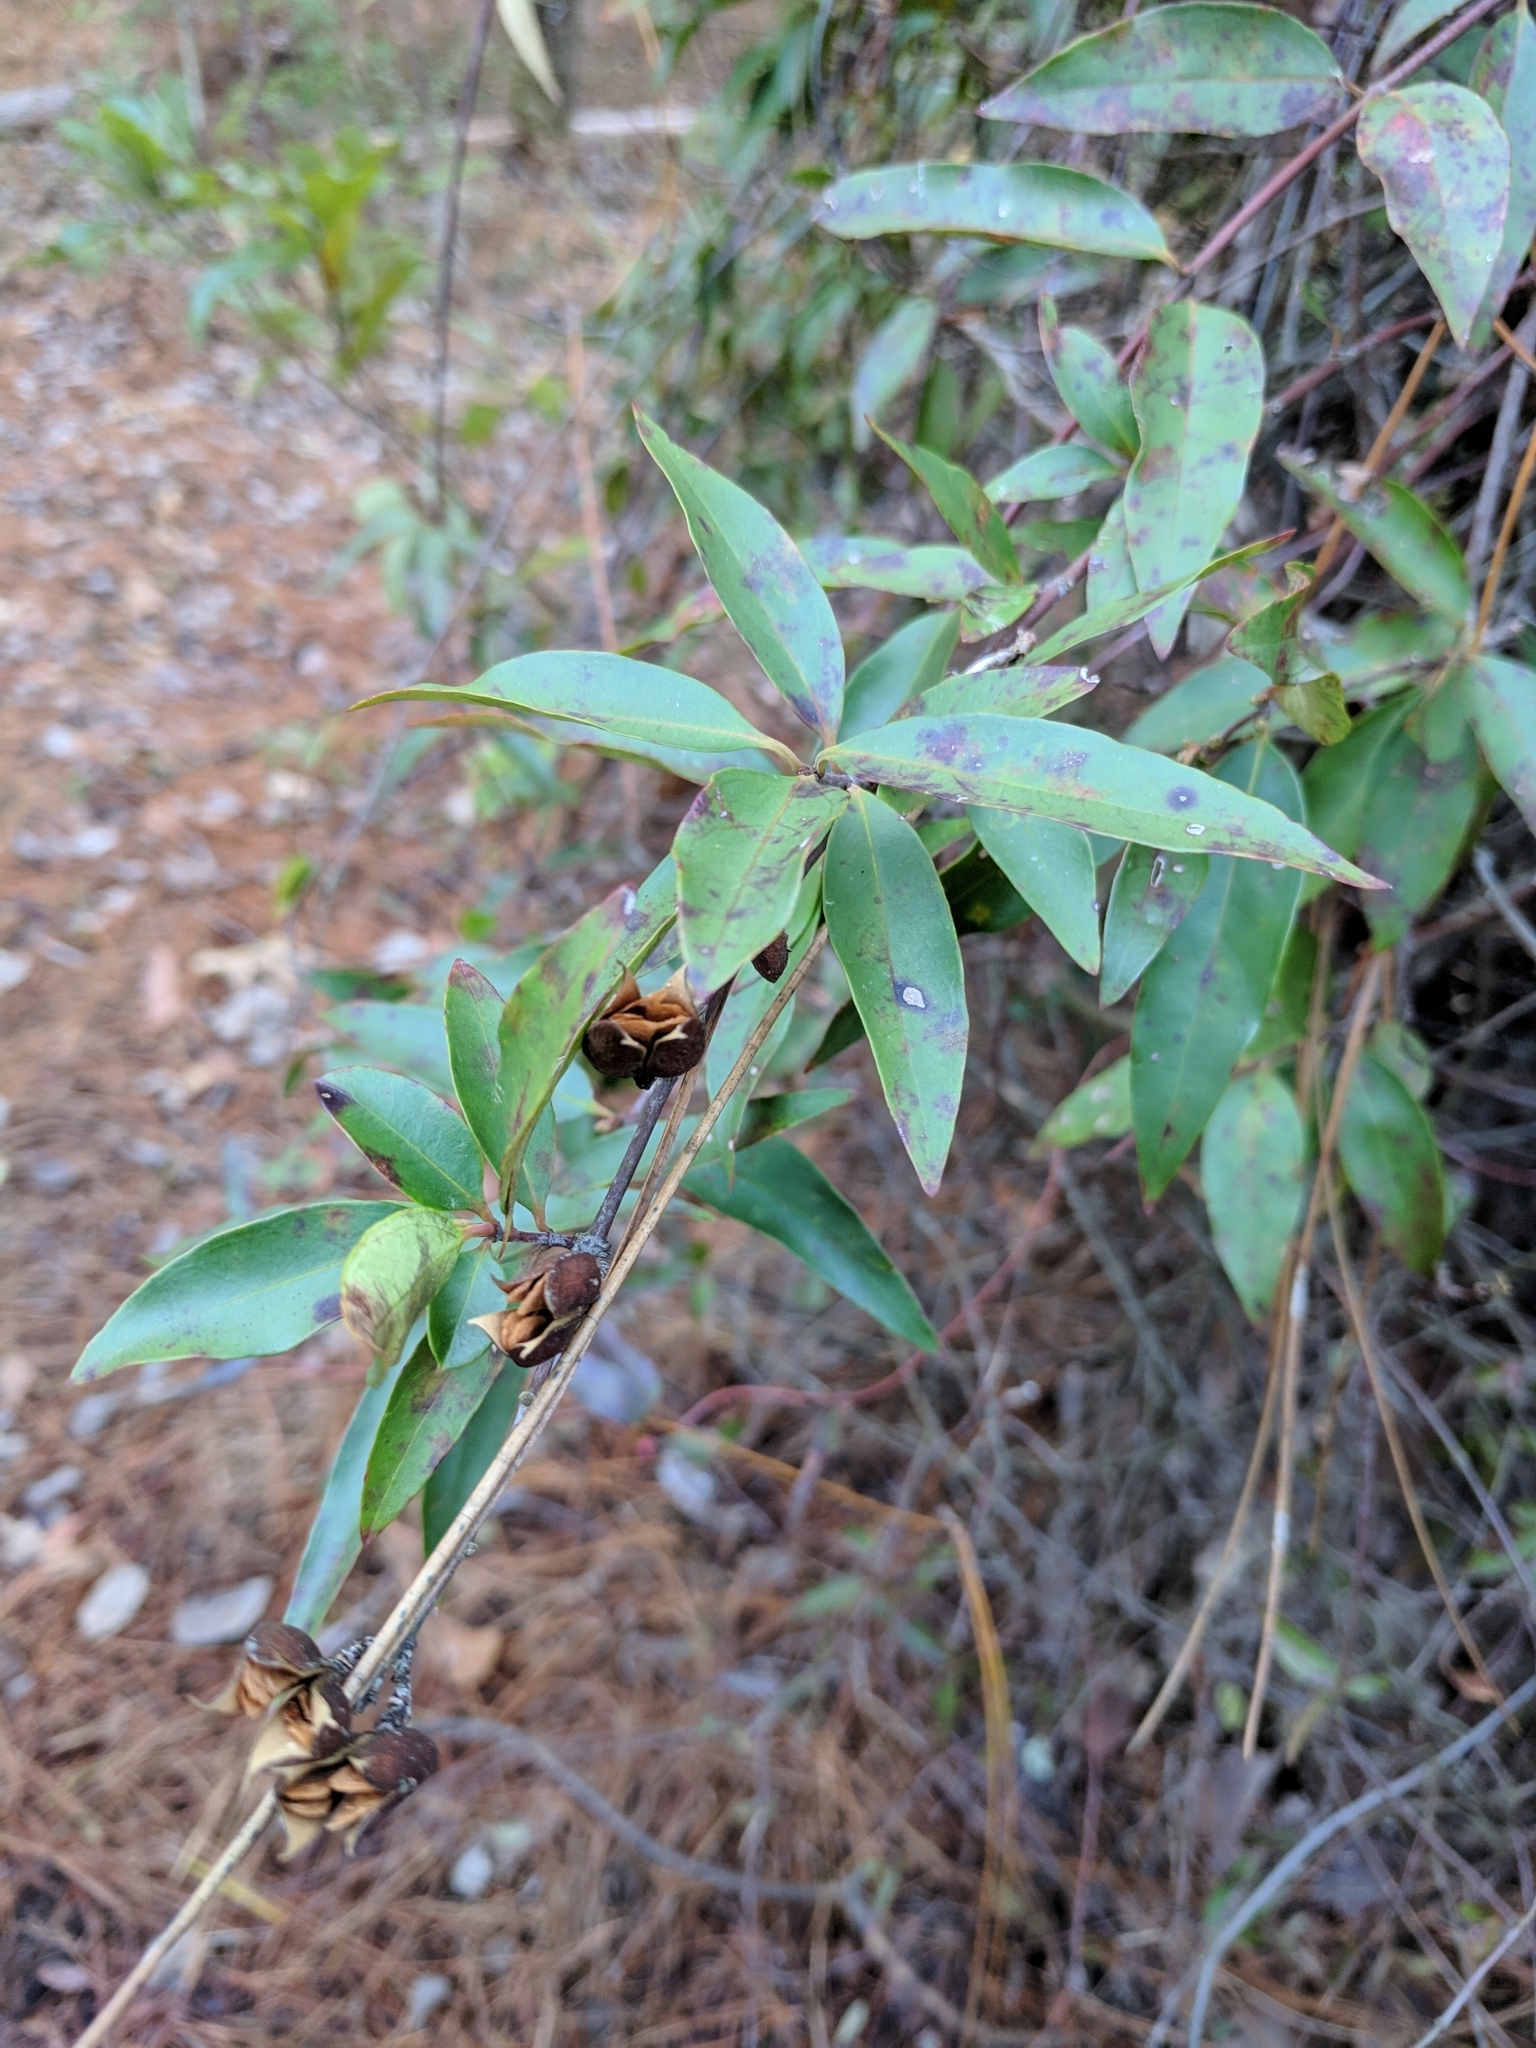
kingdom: Plantae
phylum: Tracheophyta
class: Magnoliopsida
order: Gentianales
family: Gelsemiaceae
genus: Gelsemium
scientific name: Gelsemium sempervirens
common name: Carolina-jasmine
